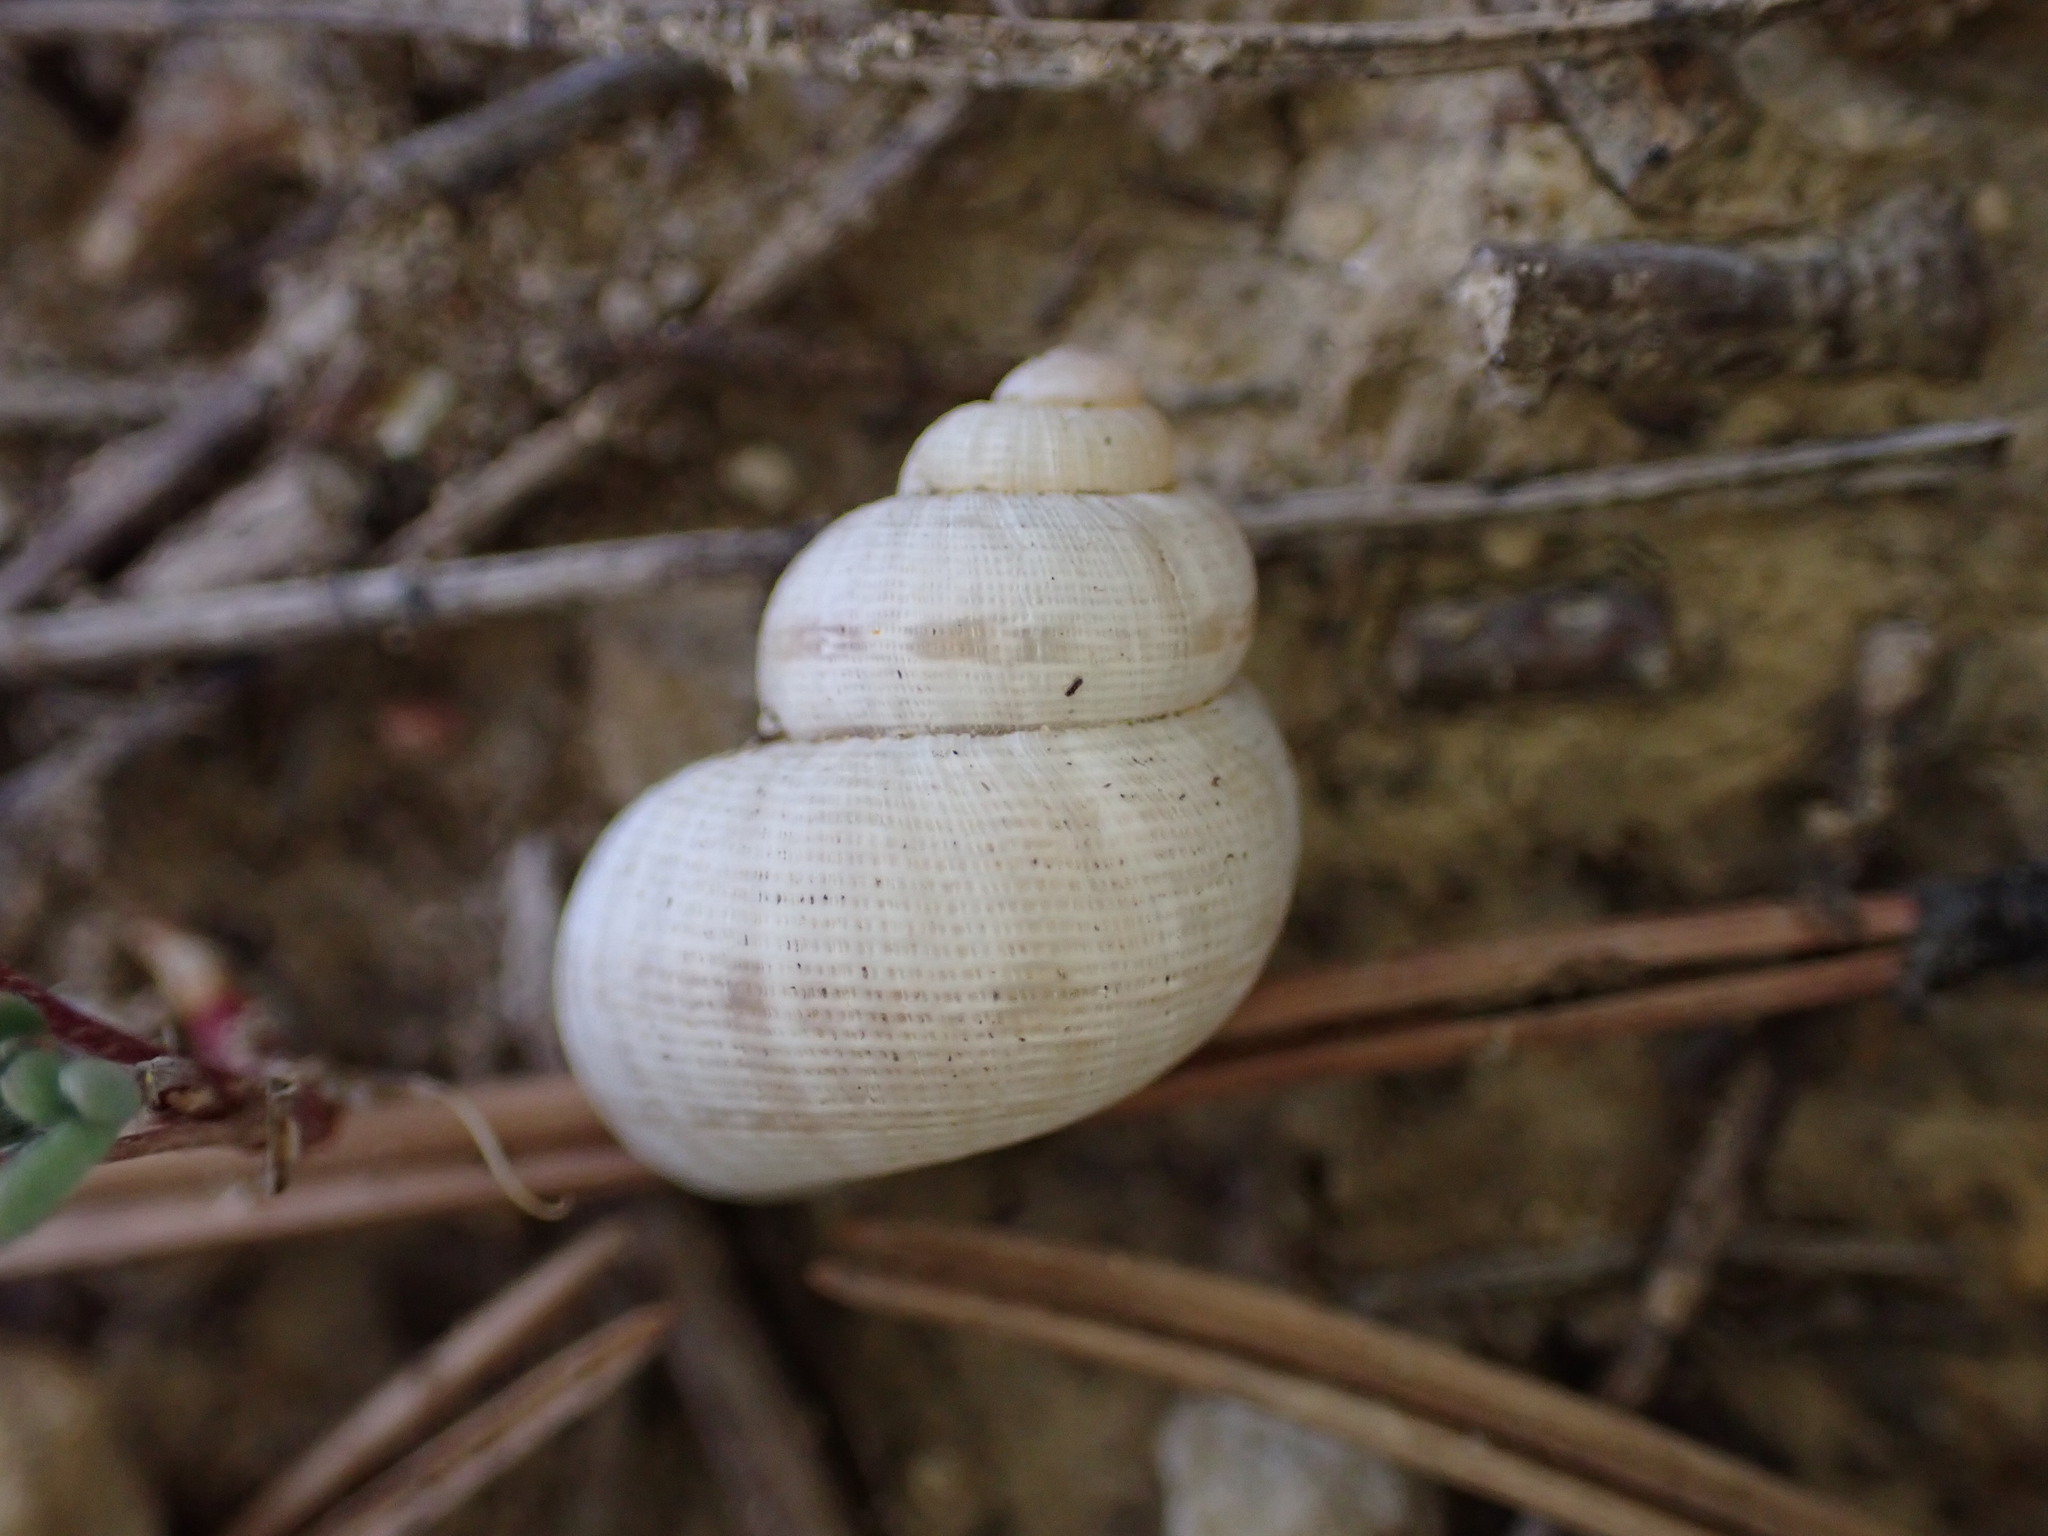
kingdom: Animalia
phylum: Mollusca
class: Gastropoda
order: Littorinimorpha
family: Pomatiidae
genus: Pomatias
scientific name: Pomatias elegans
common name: Red-mouthed snail
